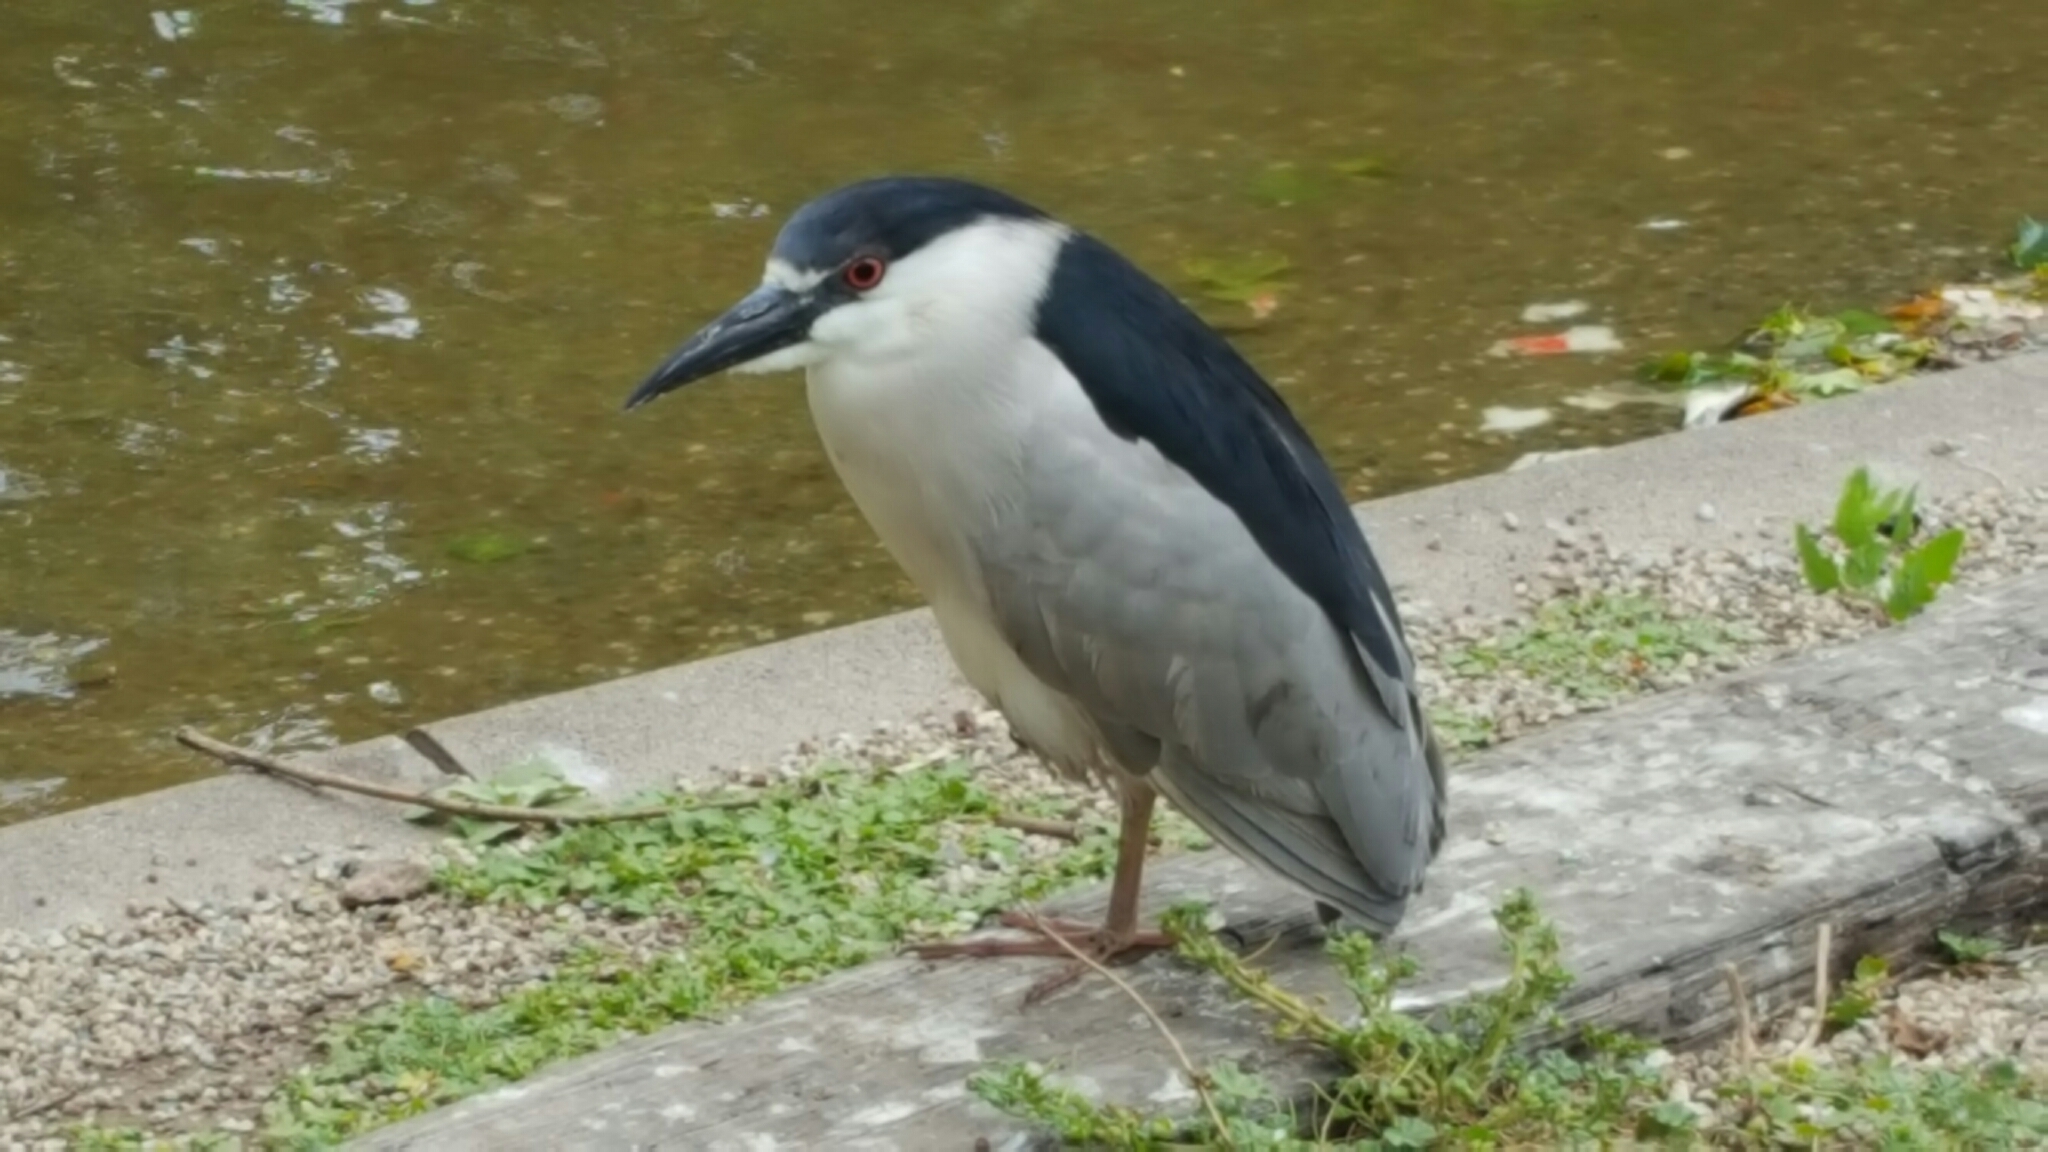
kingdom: Animalia
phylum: Chordata
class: Aves
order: Pelecaniformes
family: Ardeidae
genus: Nycticorax
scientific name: Nycticorax nycticorax
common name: Black-crowned night heron
